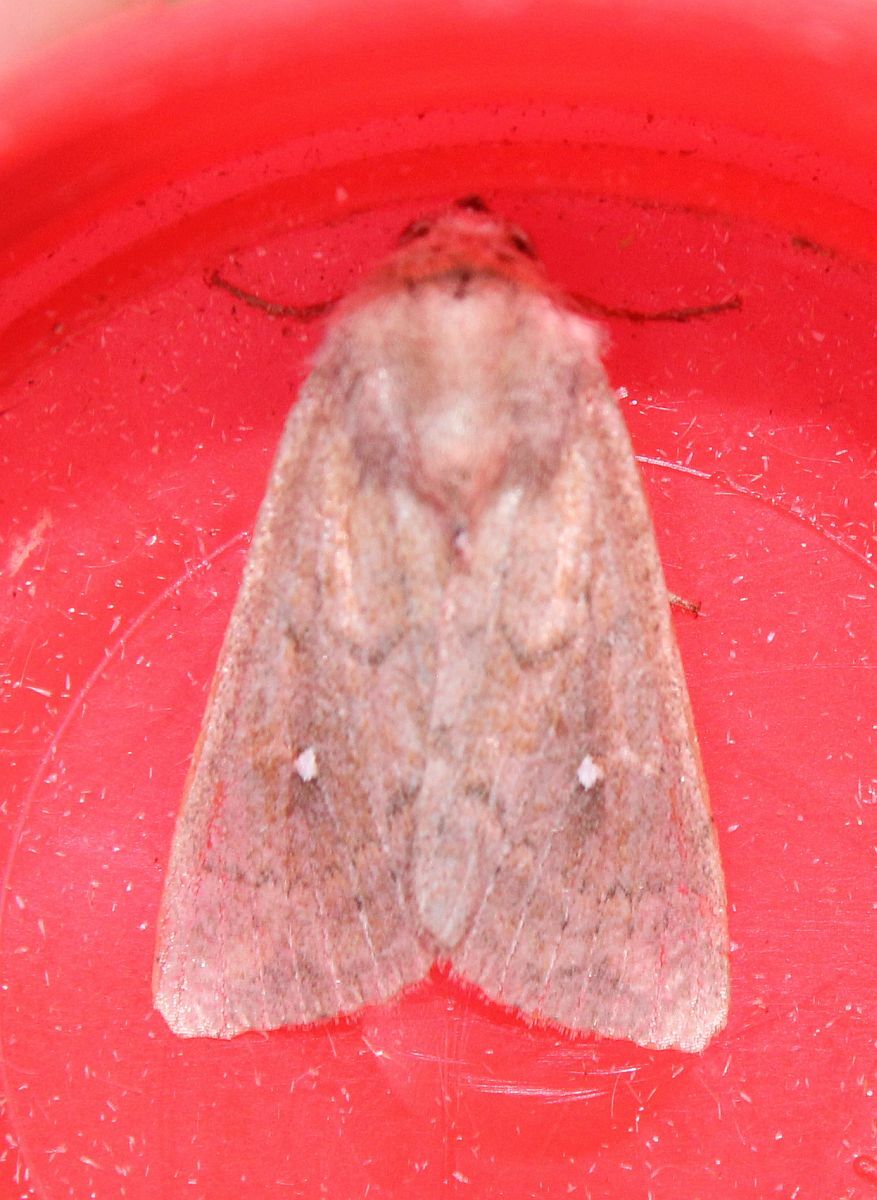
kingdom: Animalia
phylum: Arthropoda
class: Insecta
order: Lepidoptera
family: Noctuidae
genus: Mythimna
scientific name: Mythimna albipuncta
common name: White-point
